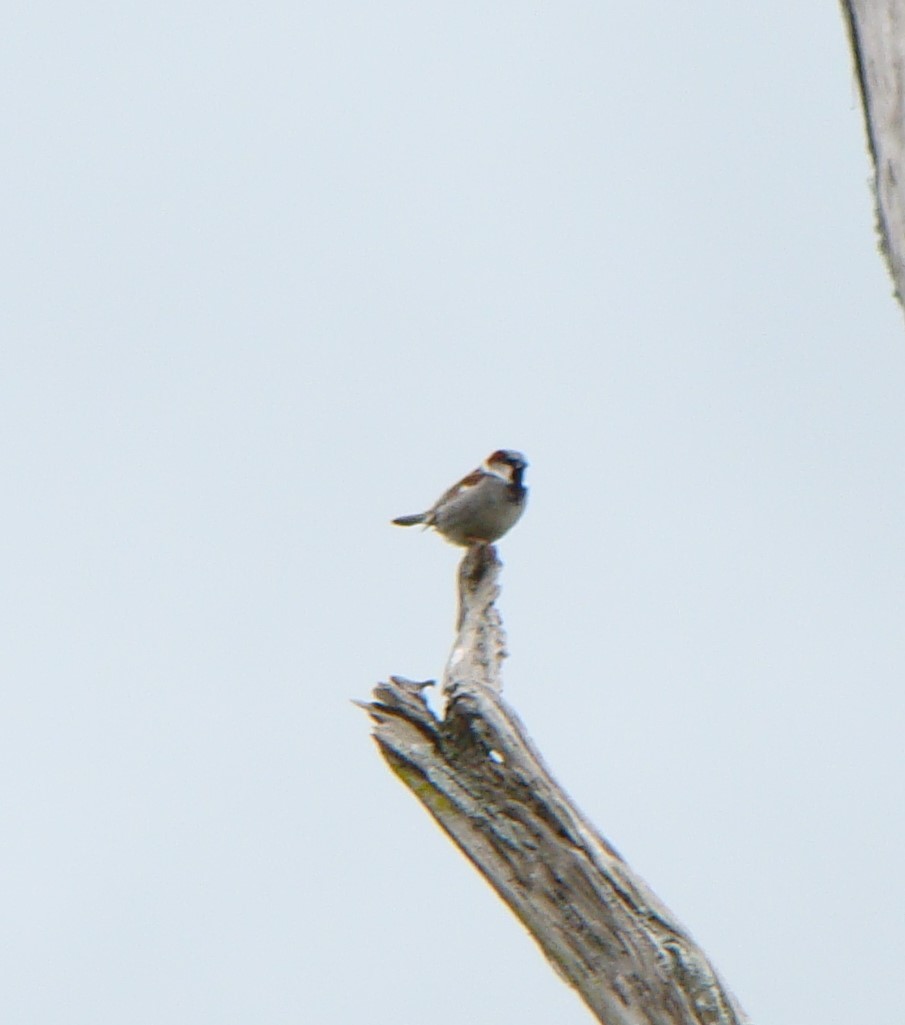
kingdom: Animalia
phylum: Chordata
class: Aves
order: Passeriformes
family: Passeridae
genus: Passer
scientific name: Passer domesticus
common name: House sparrow
